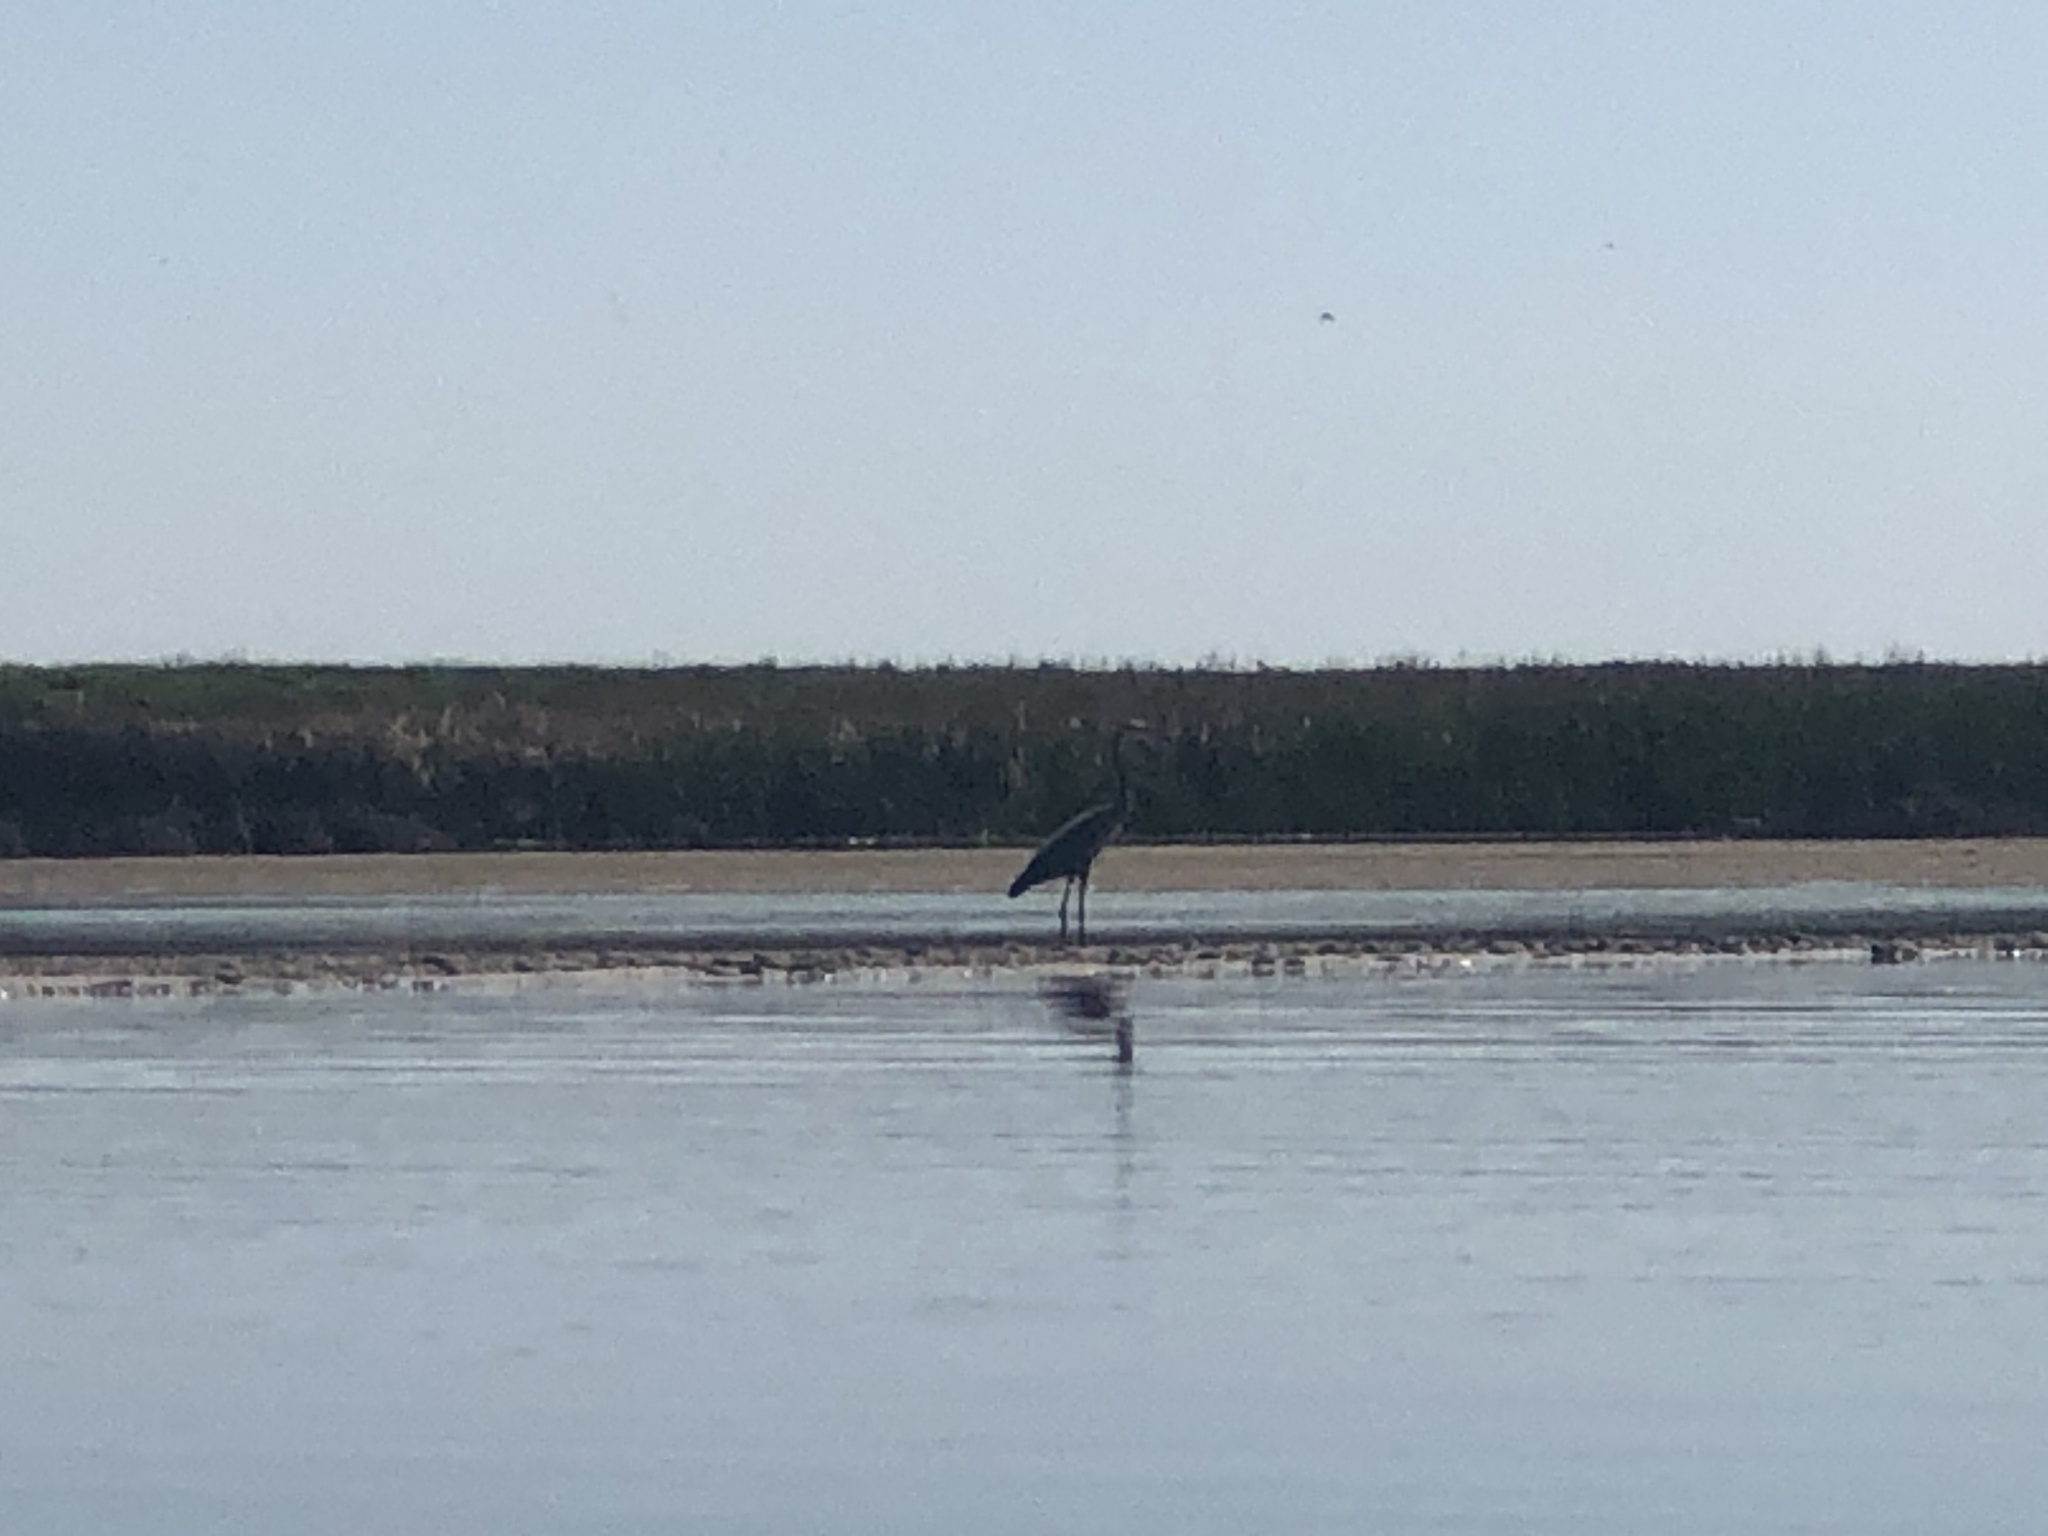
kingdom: Animalia
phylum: Chordata
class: Aves
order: Pelecaniformes
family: Ardeidae
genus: Ardea
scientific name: Ardea herodias
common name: Great blue heron
